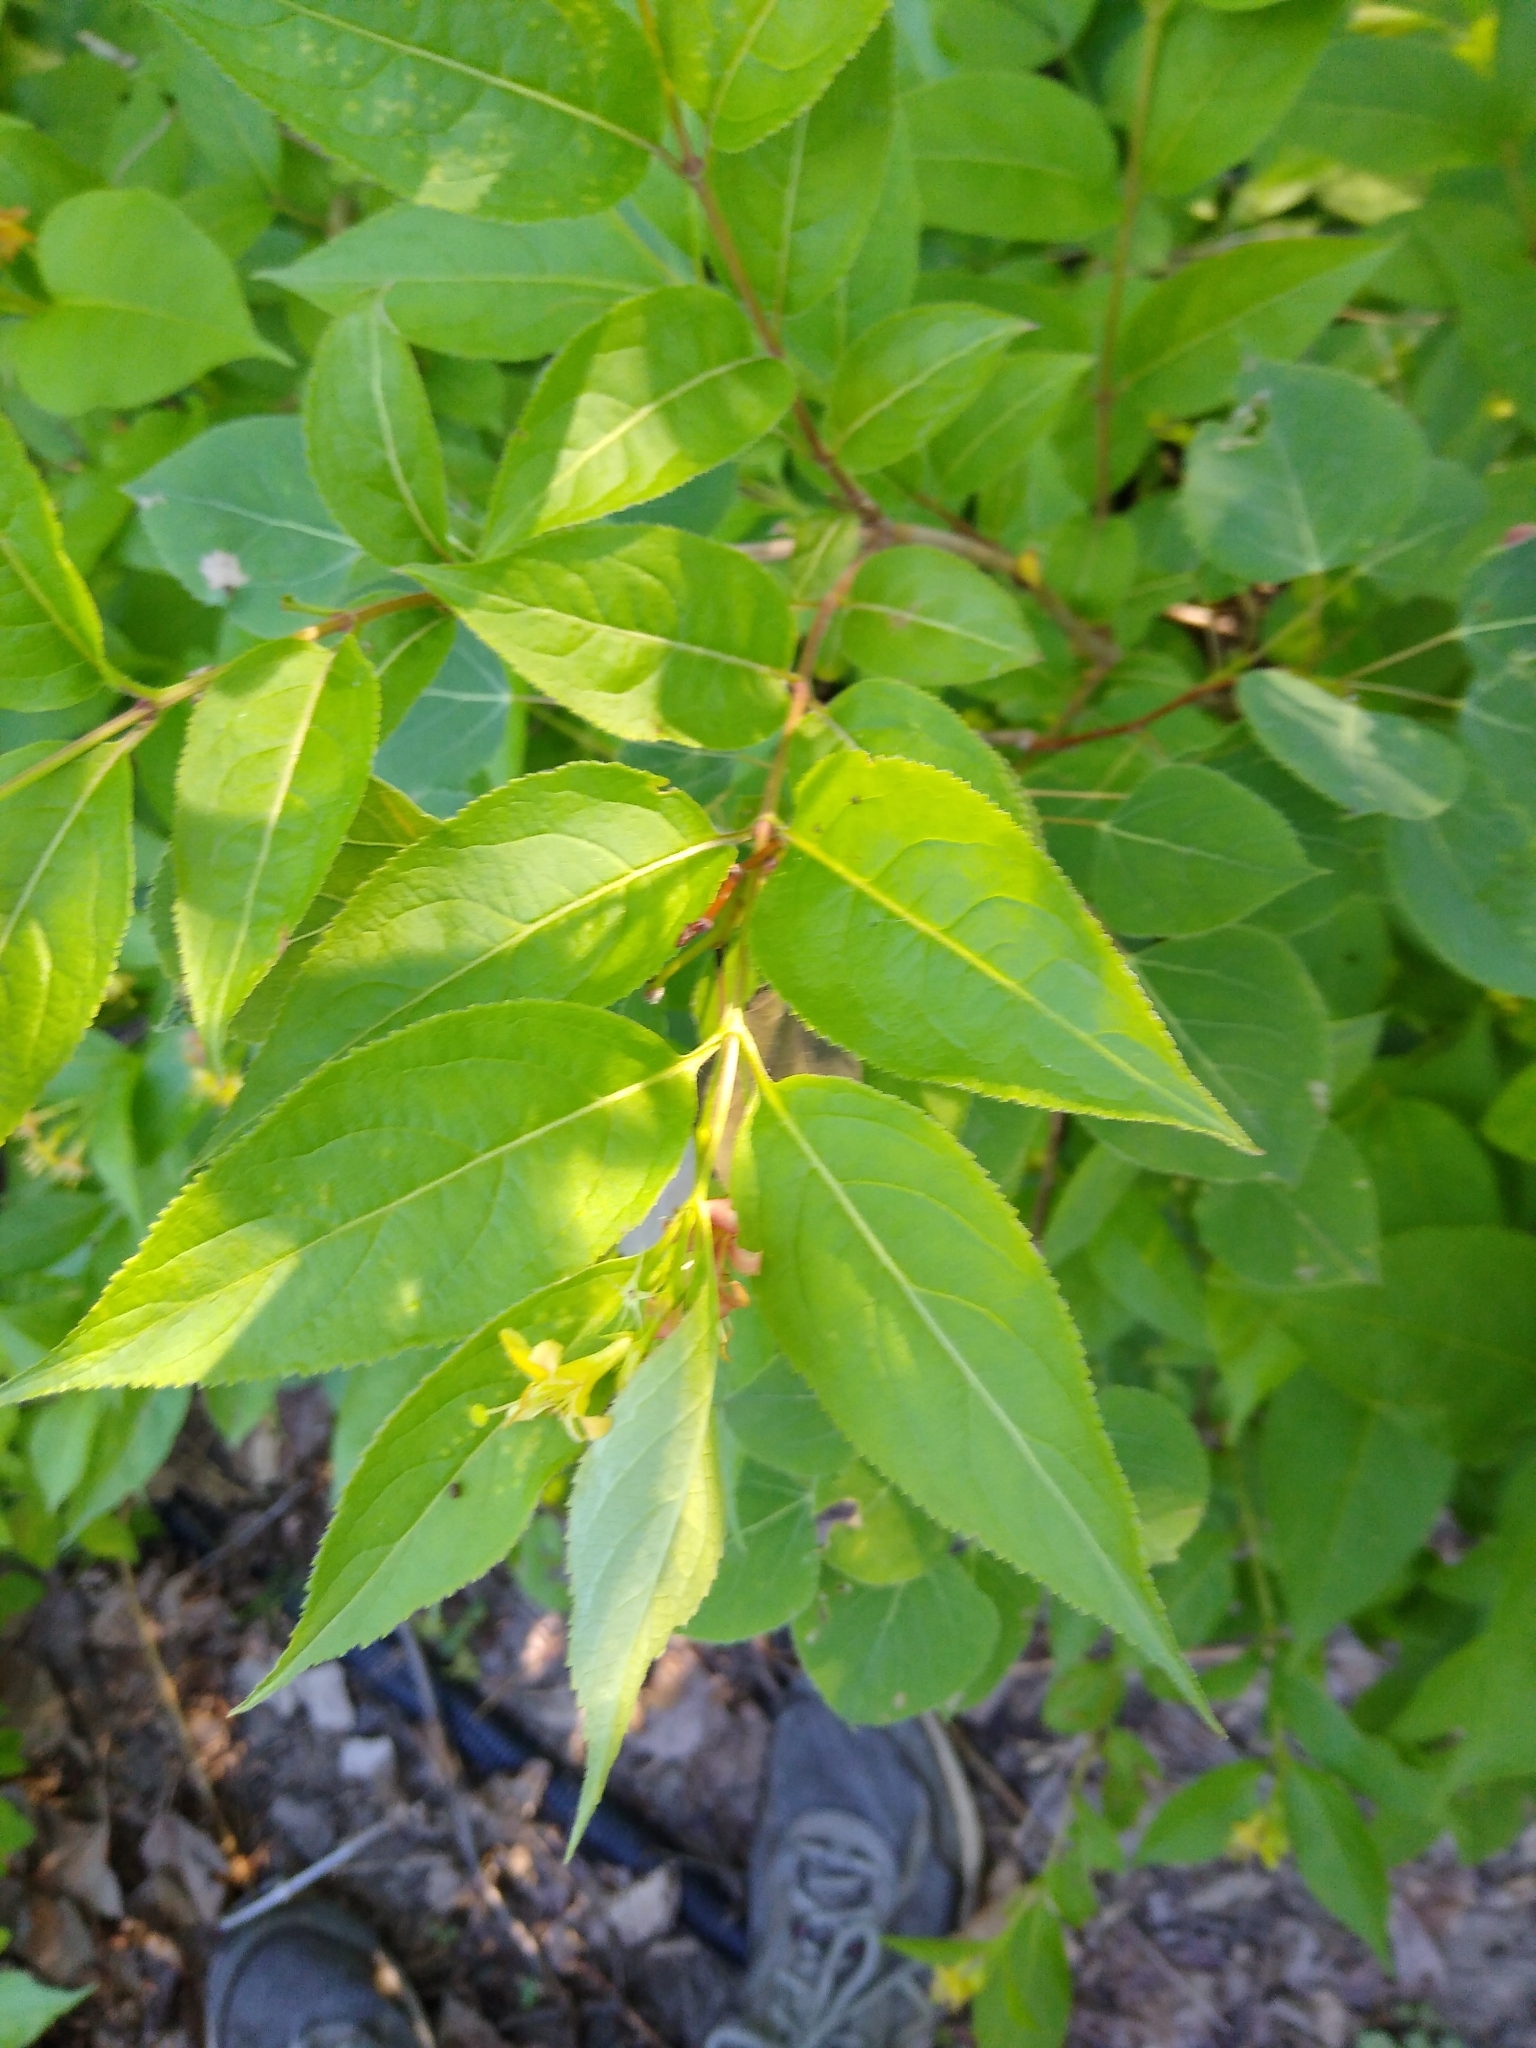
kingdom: Plantae
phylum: Tracheophyta
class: Magnoliopsida
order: Dipsacales
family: Caprifoliaceae
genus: Diervilla
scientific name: Diervilla lonicera
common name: Bush-honeysuckle
